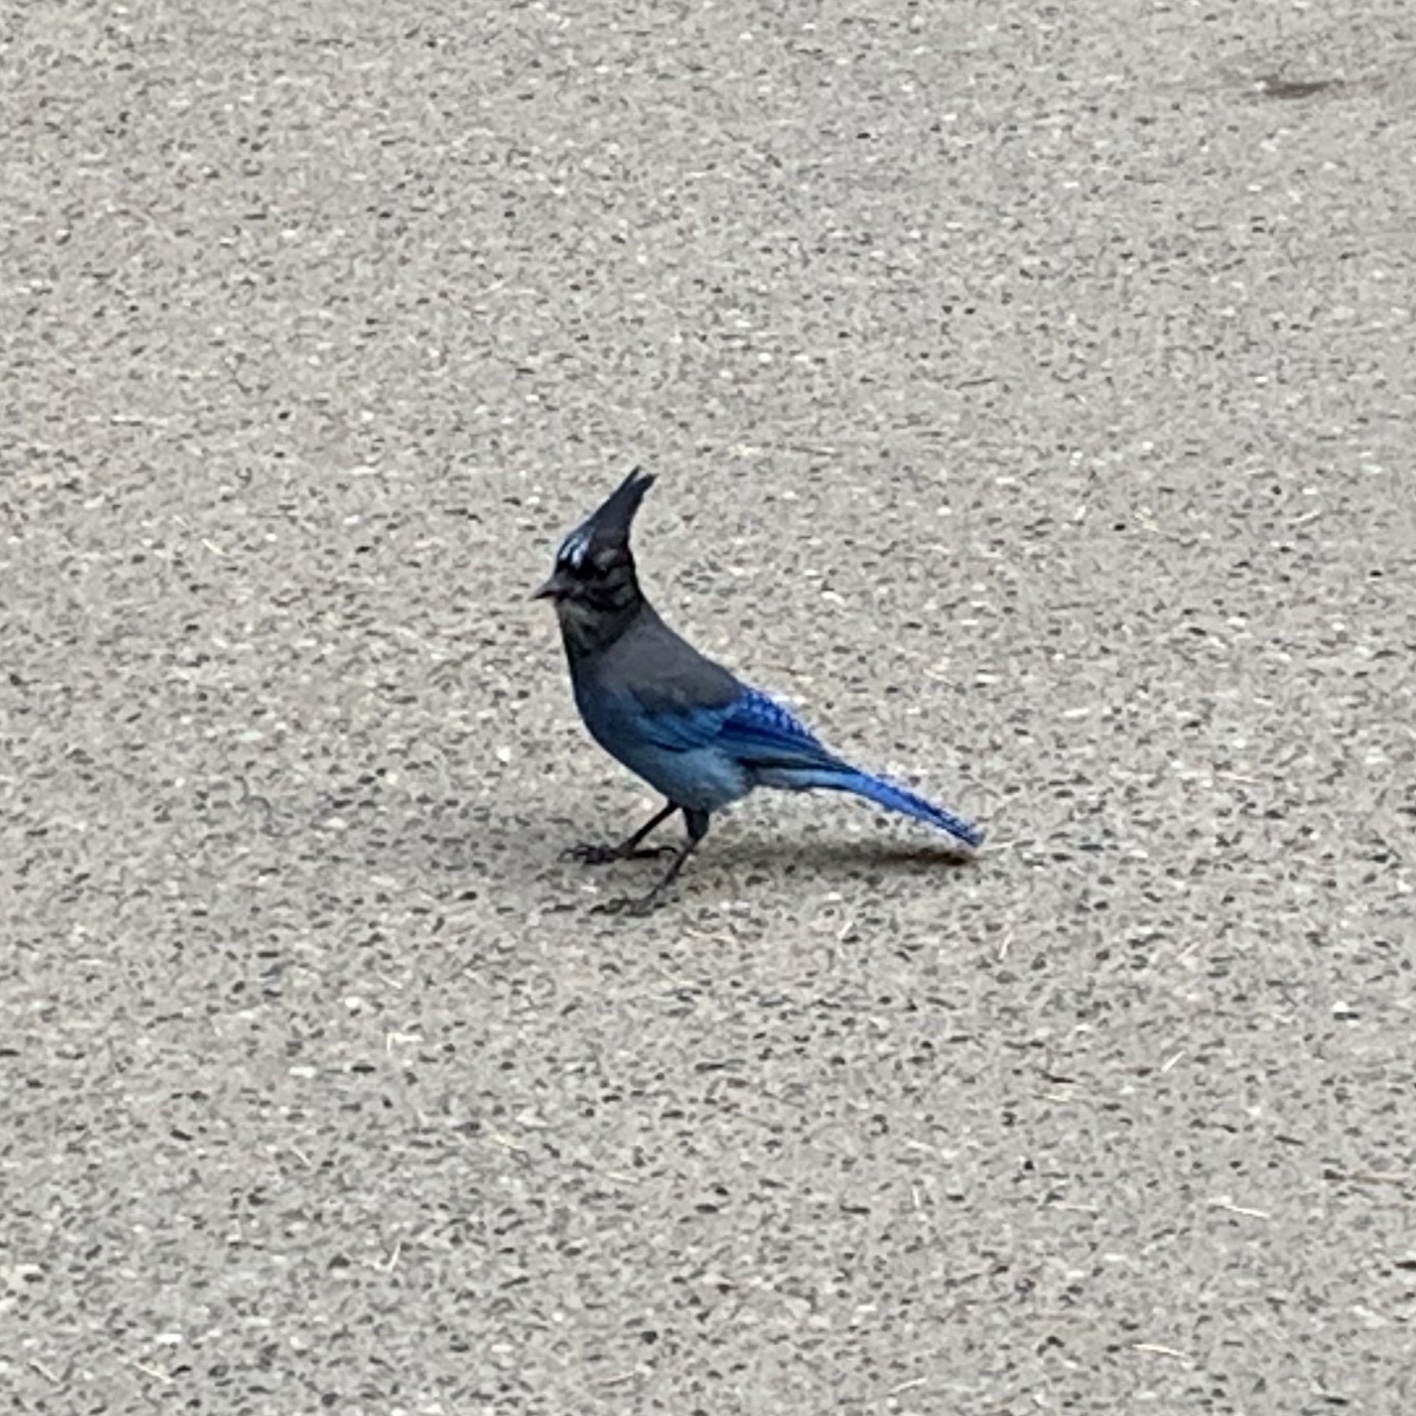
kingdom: Animalia
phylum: Chordata
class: Aves
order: Passeriformes
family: Corvidae
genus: Cyanocitta
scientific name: Cyanocitta stelleri
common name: Steller's jay
